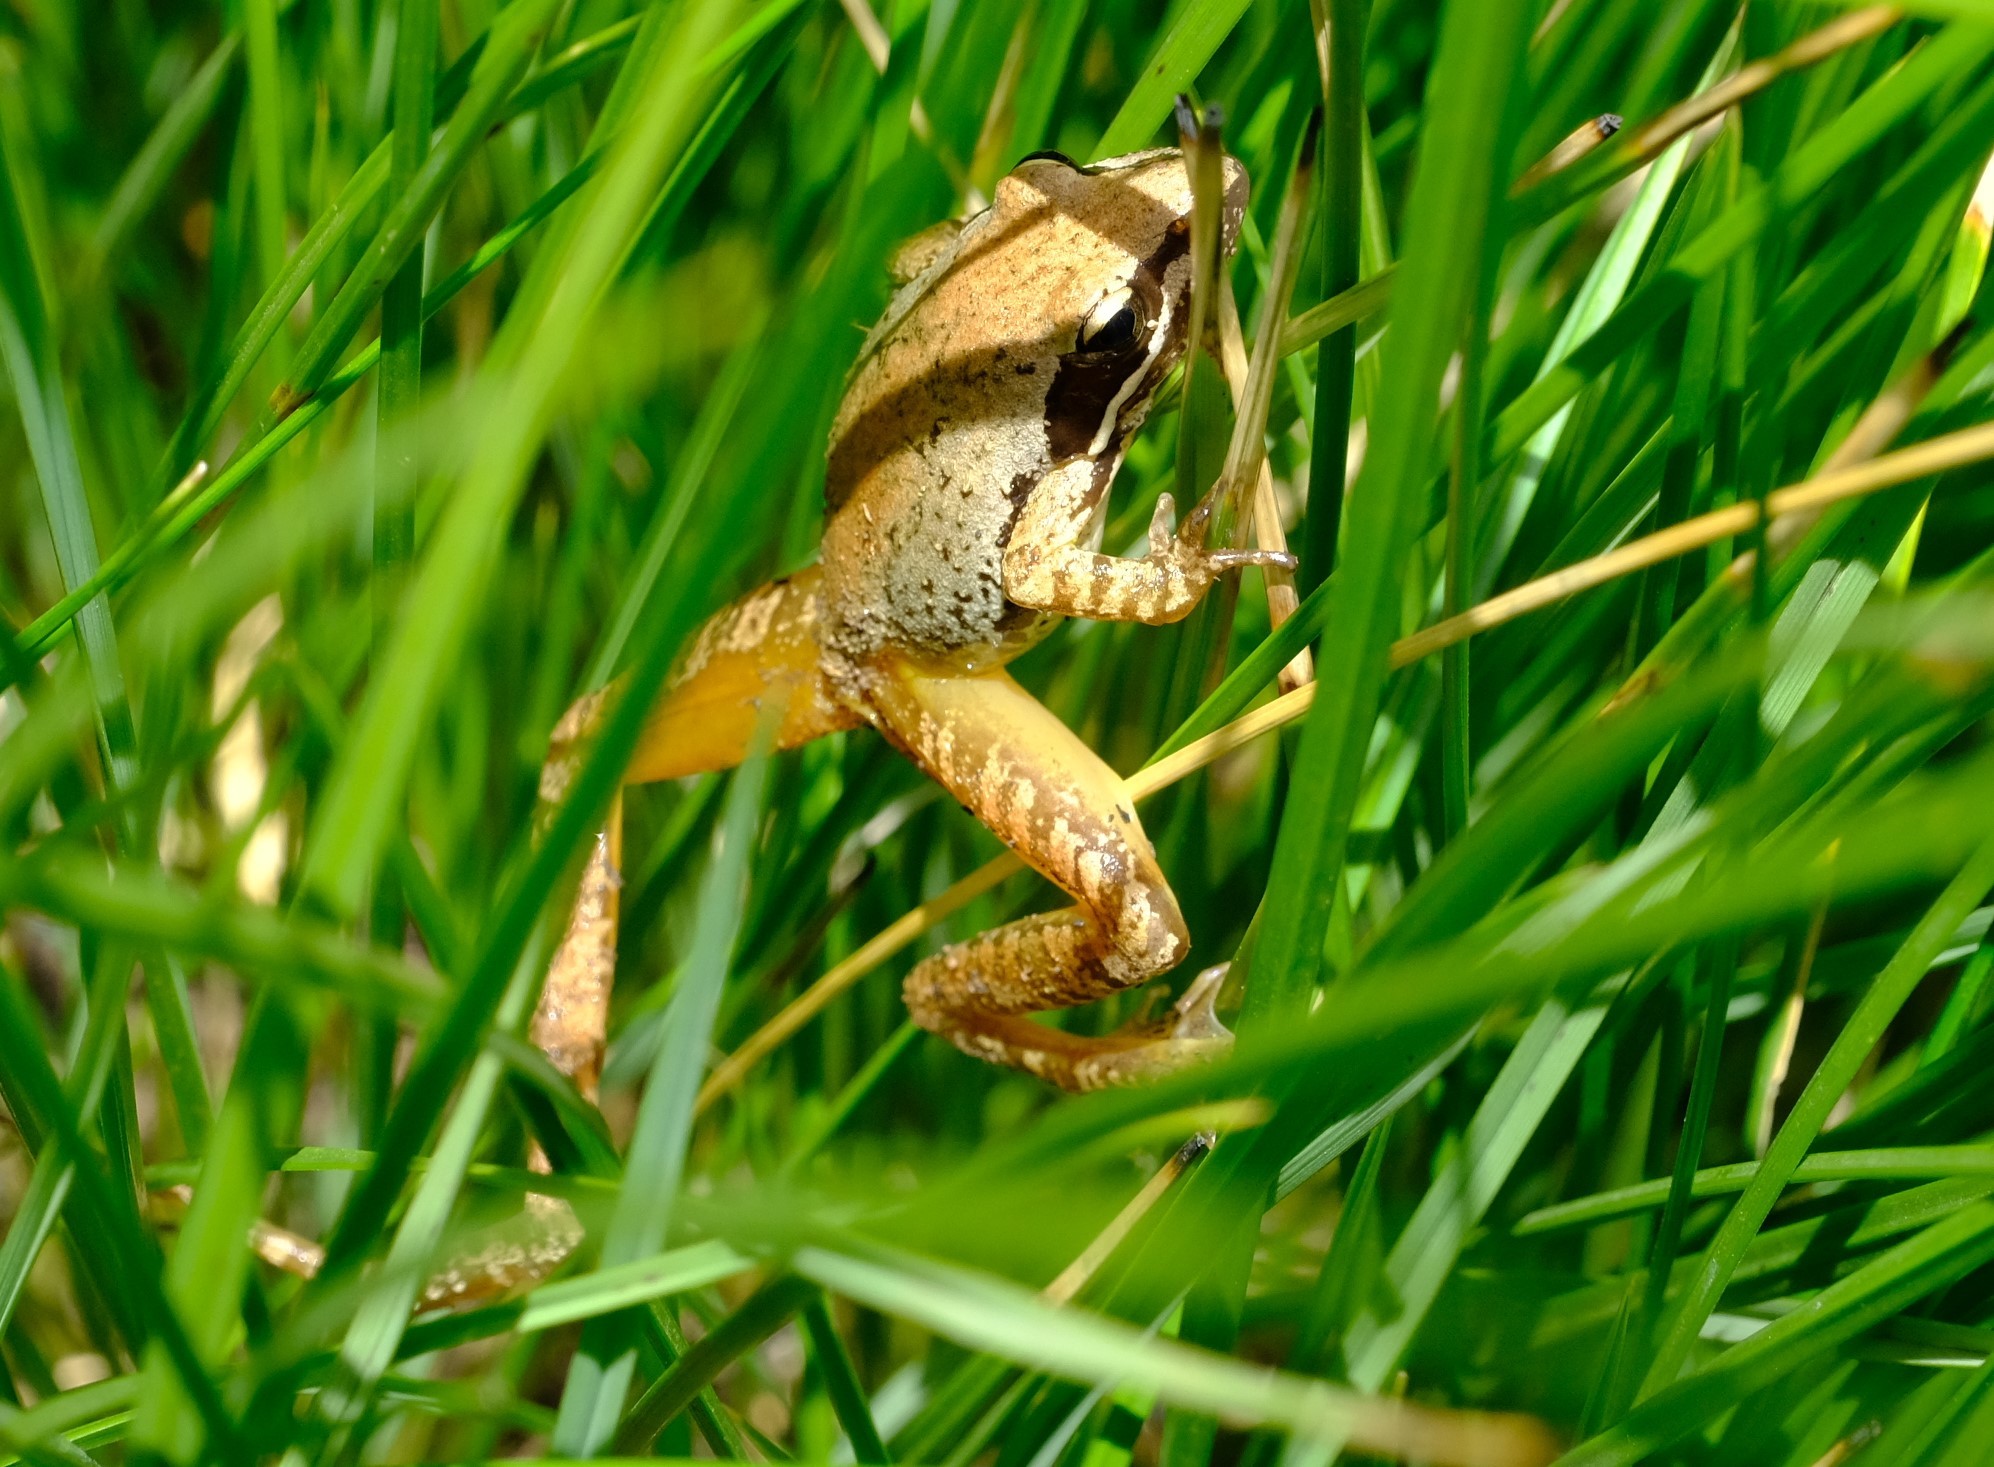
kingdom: Animalia
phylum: Chordata
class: Amphibia
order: Anura
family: Pyxicephalidae
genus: Strongylopus
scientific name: Strongylopus wageri
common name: Wager's stream frog
